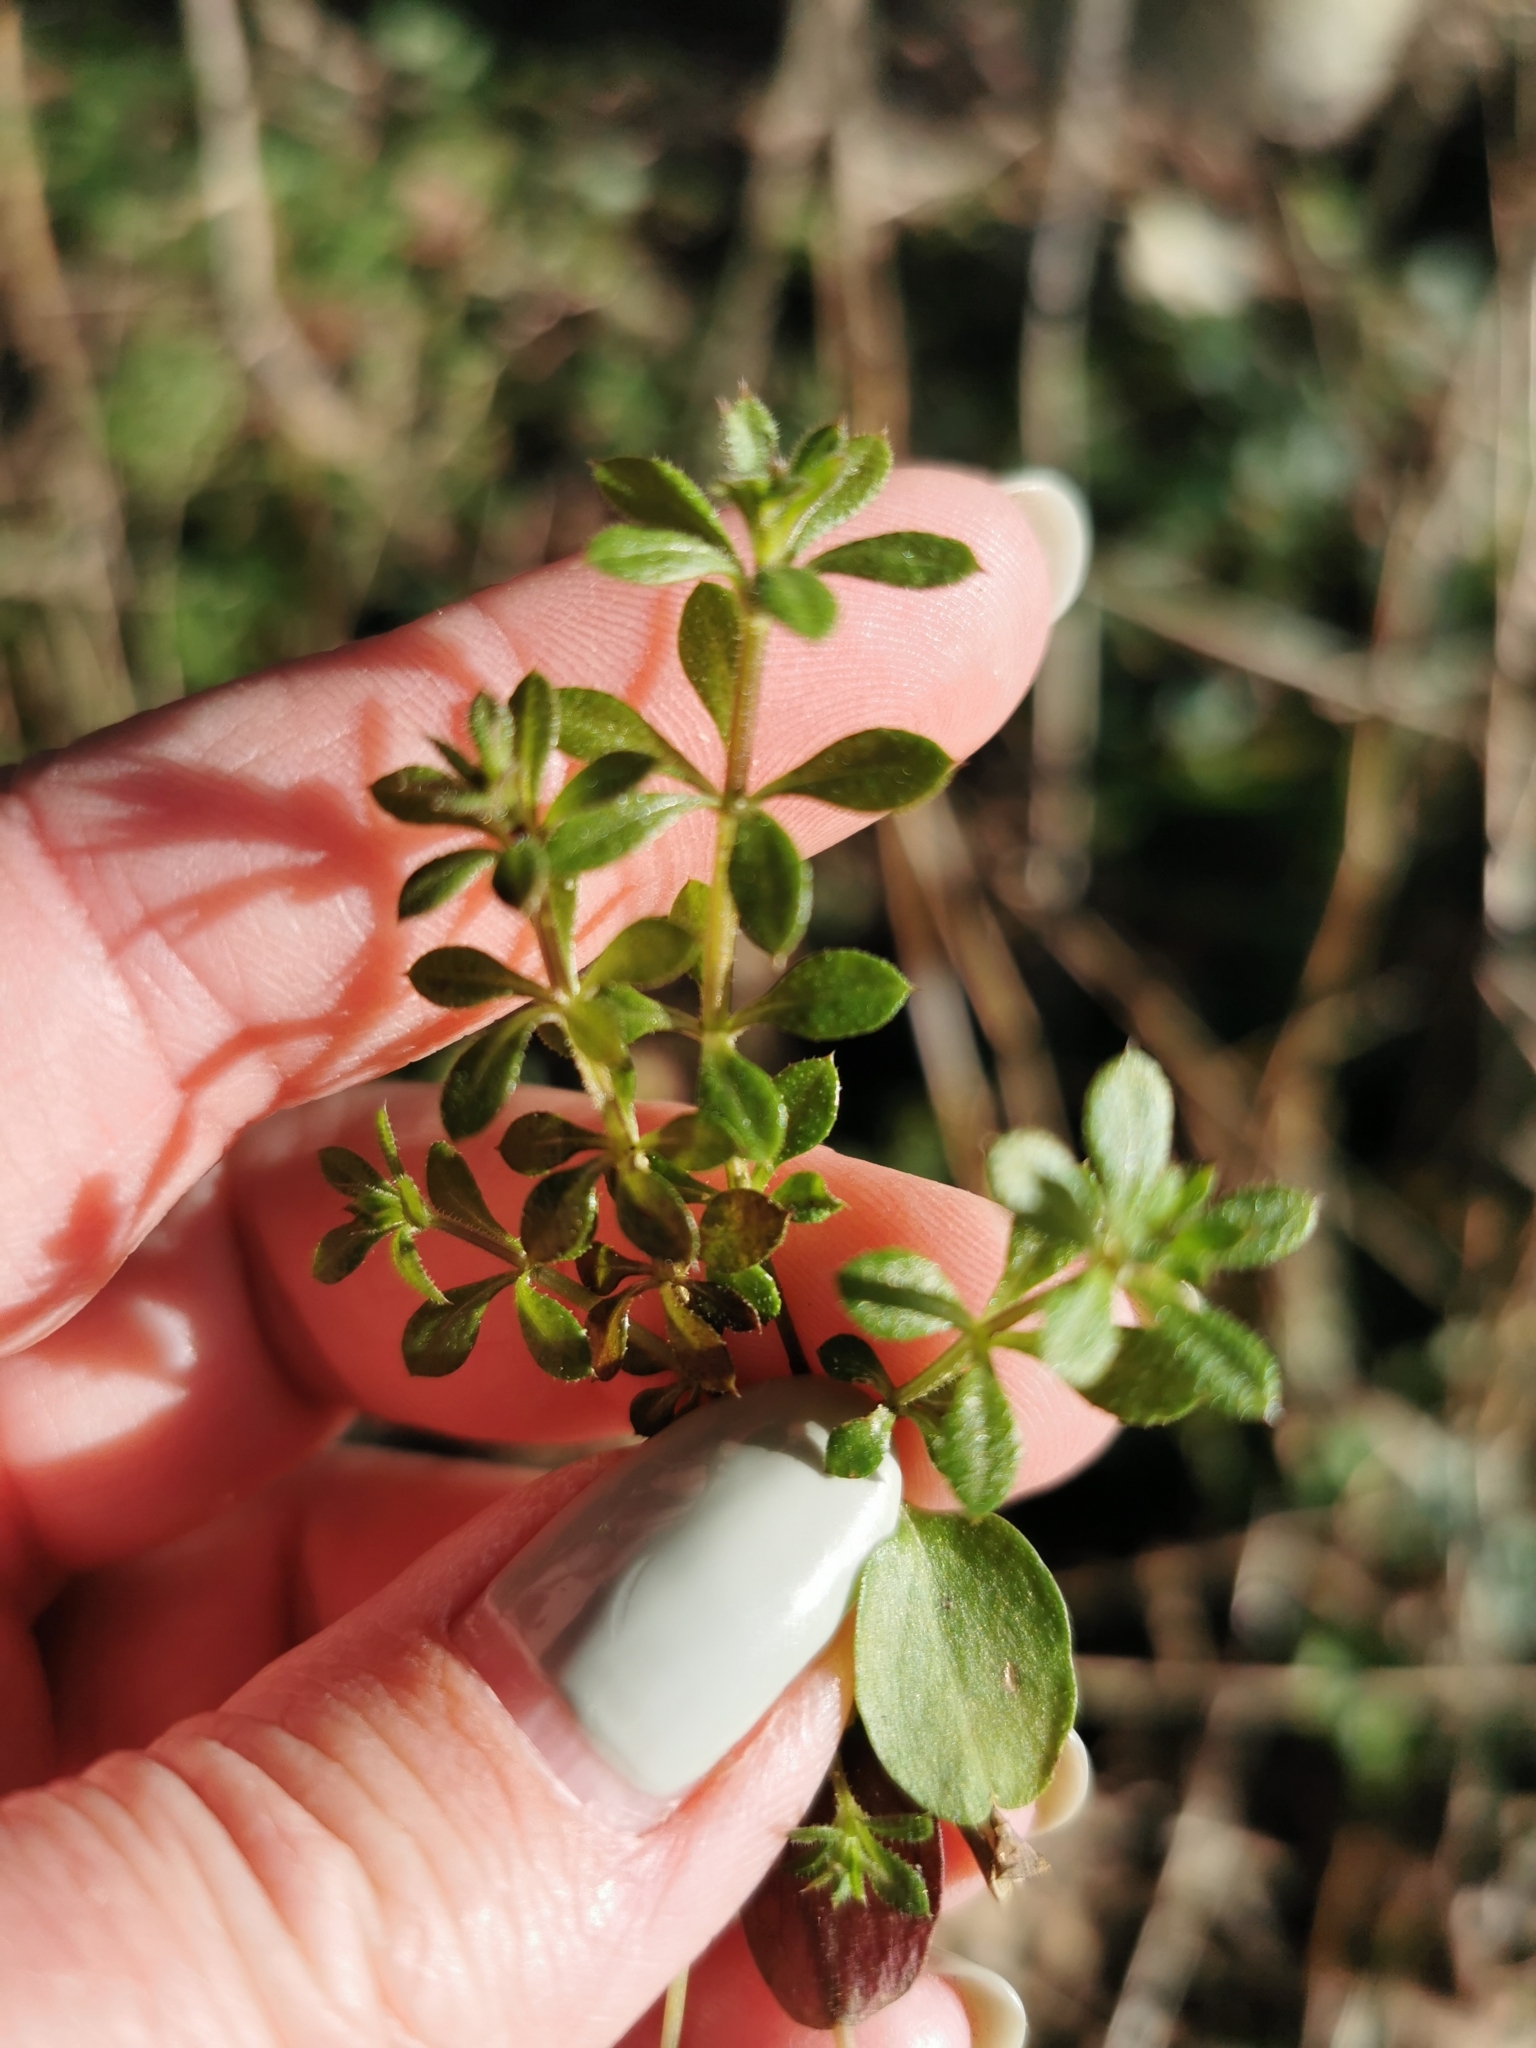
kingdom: Plantae
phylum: Tracheophyta
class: Magnoliopsida
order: Gentianales
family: Rubiaceae
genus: Galium
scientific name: Galium aparine
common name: Cleavers
